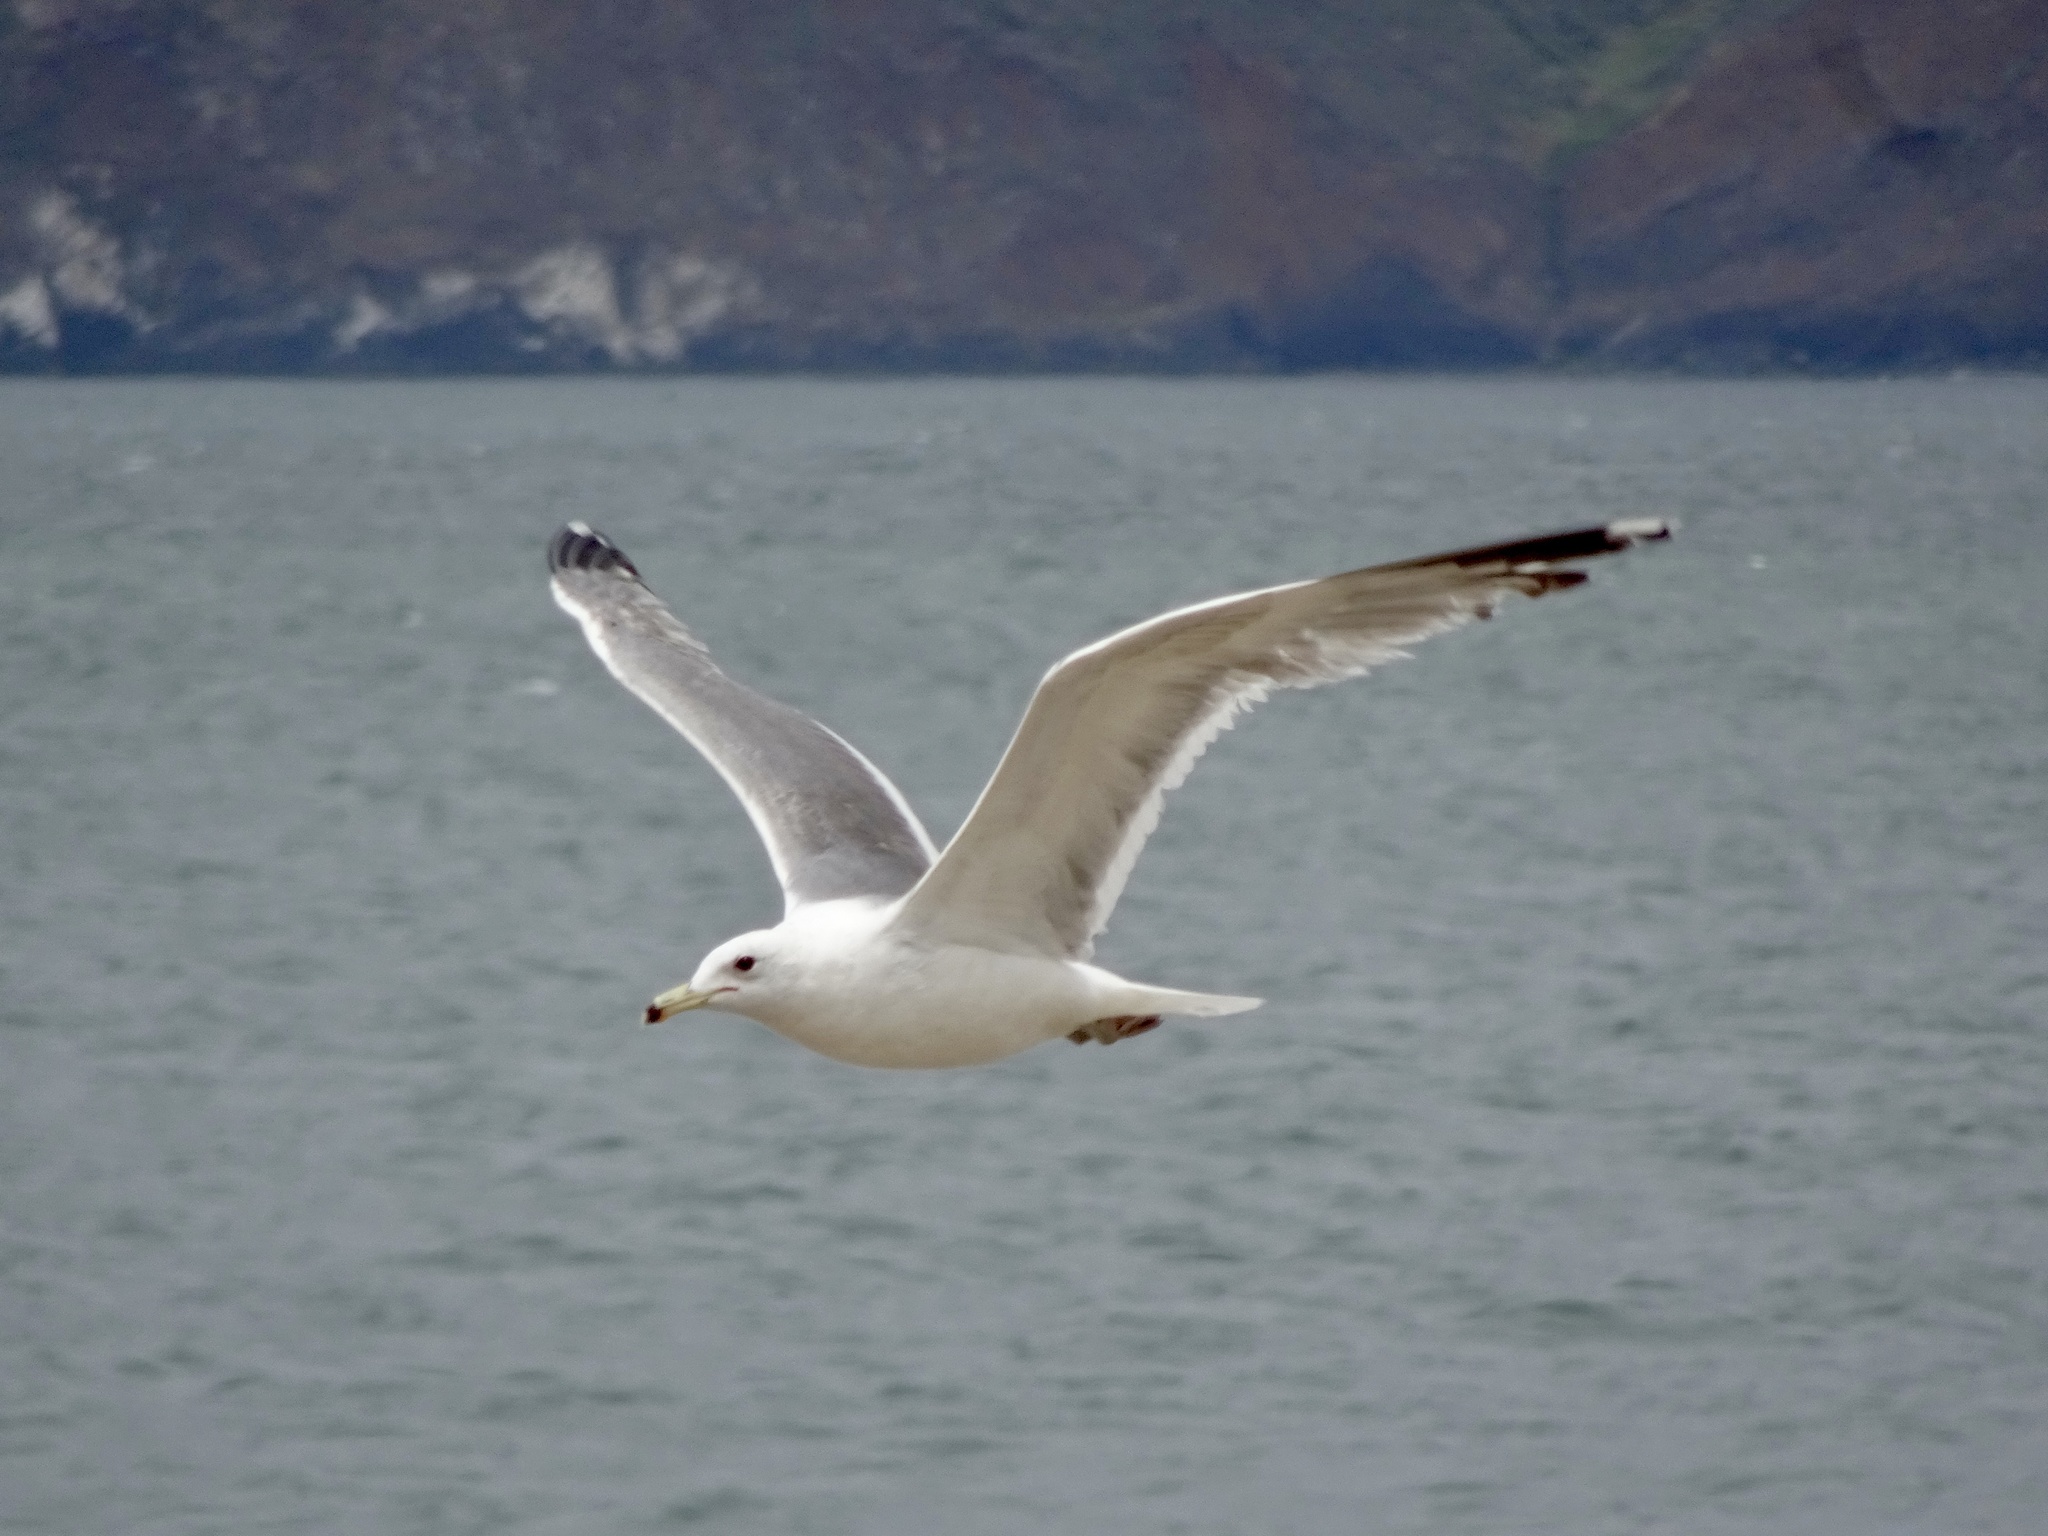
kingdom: Animalia
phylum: Chordata
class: Aves
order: Charadriiformes
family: Laridae
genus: Larus
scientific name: Larus californicus
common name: California gull
